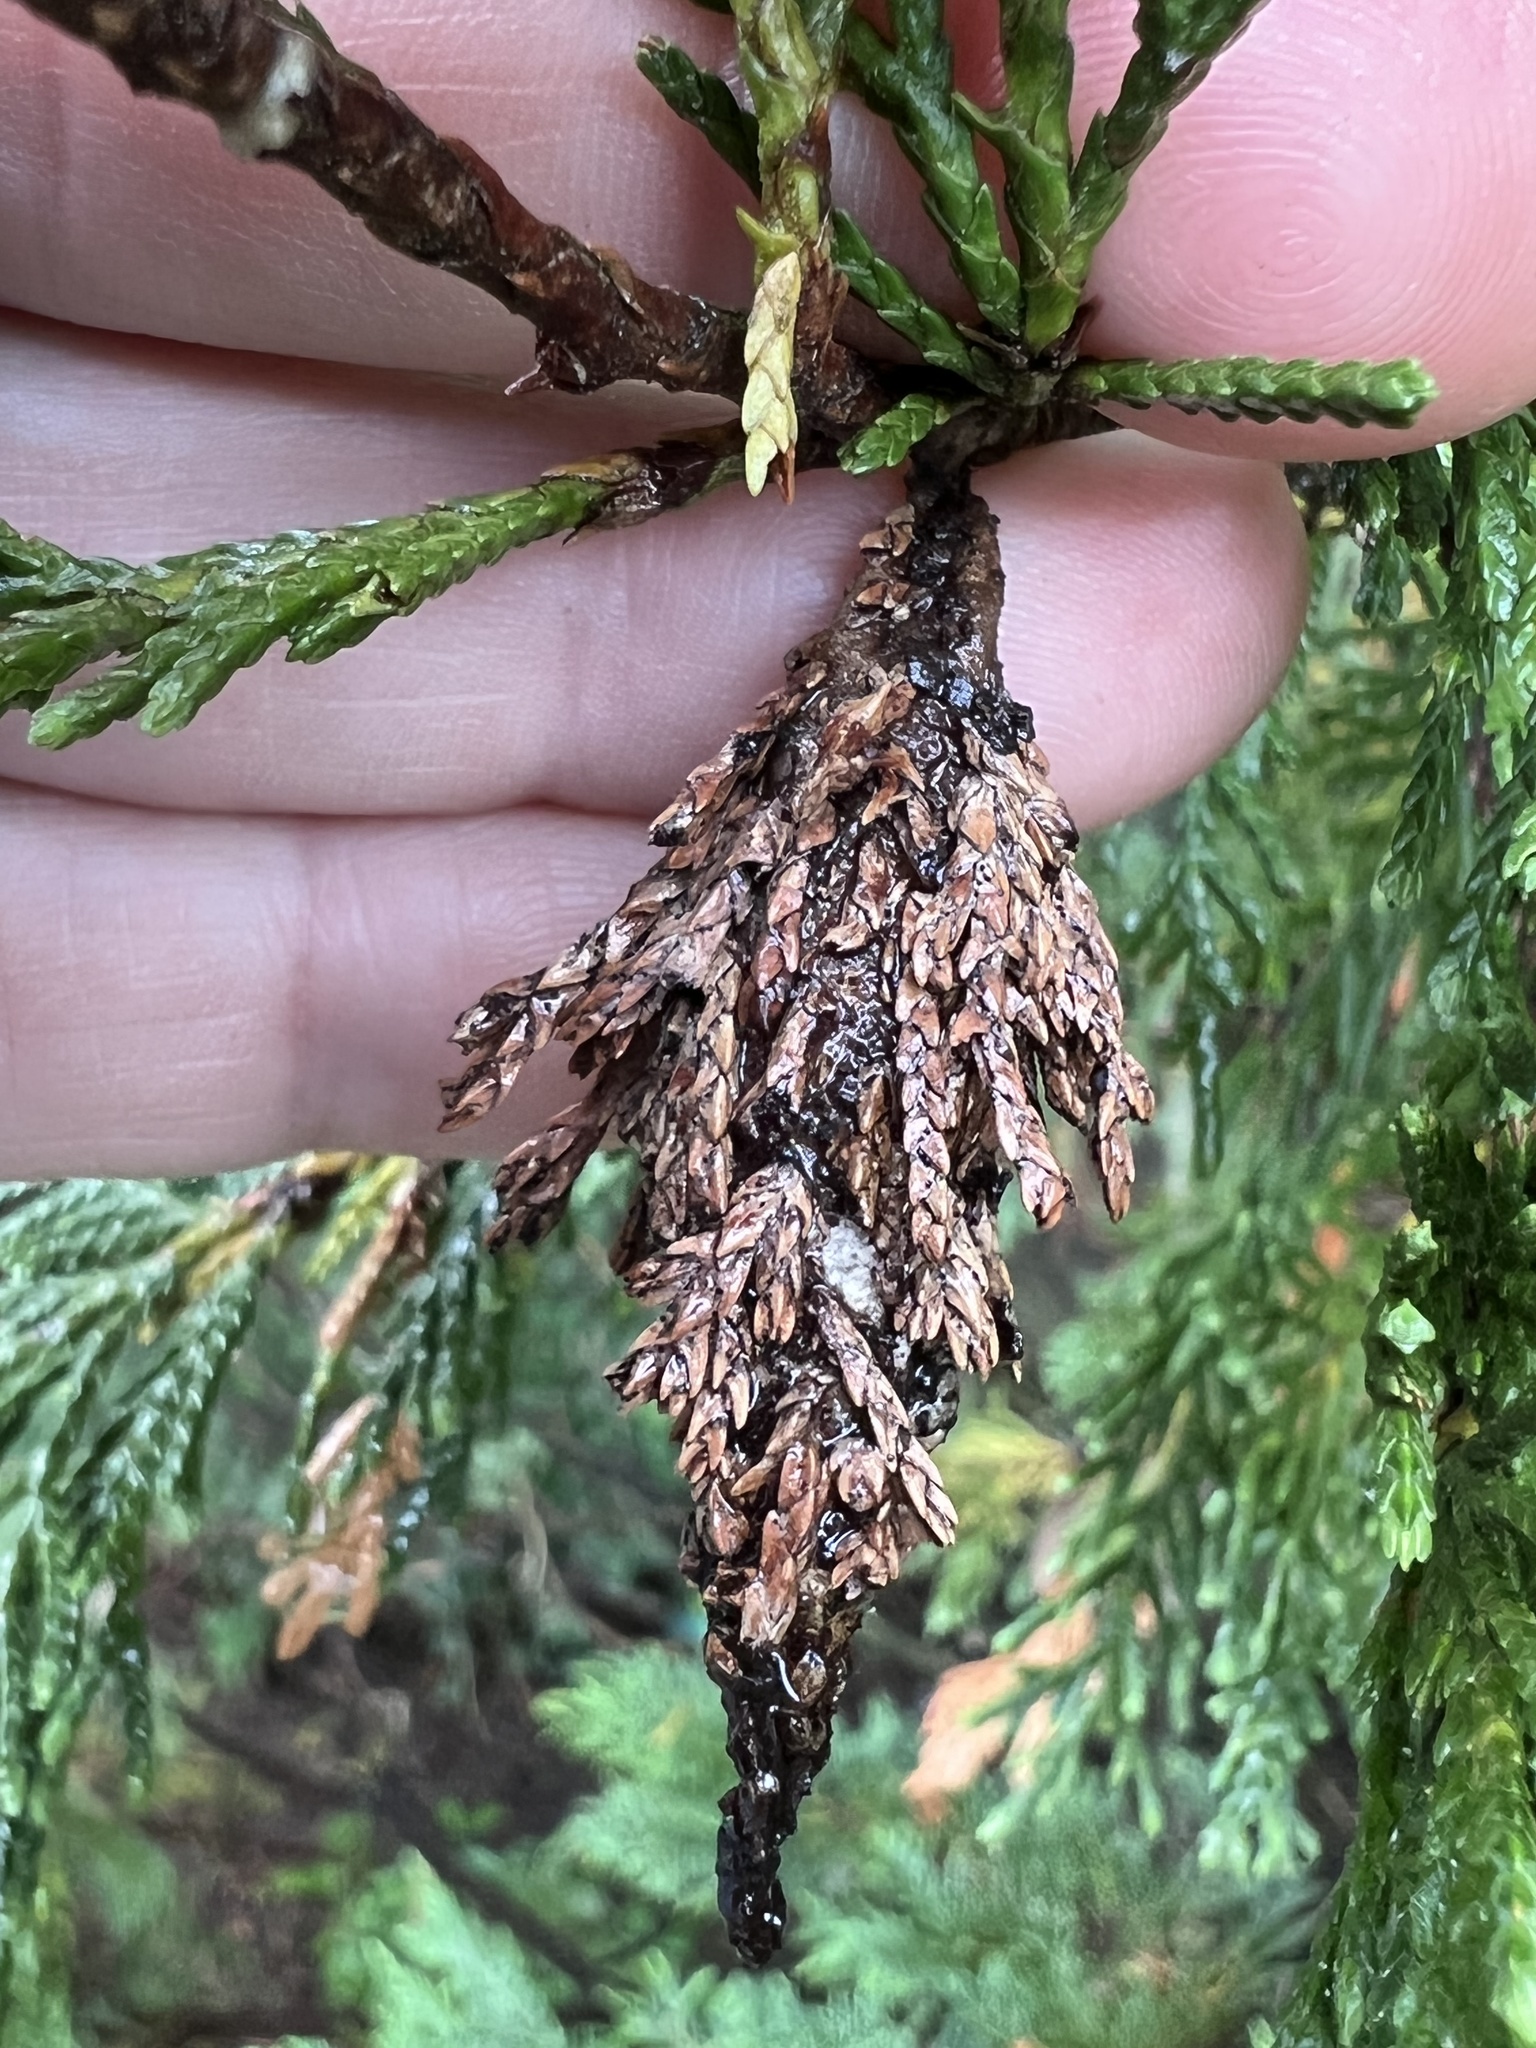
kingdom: Animalia
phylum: Arthropoda
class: Insecta
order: Lepidoptera
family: Psychidae
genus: Thyridopteryx
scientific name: Thyridopteryx ephemeraeformis
